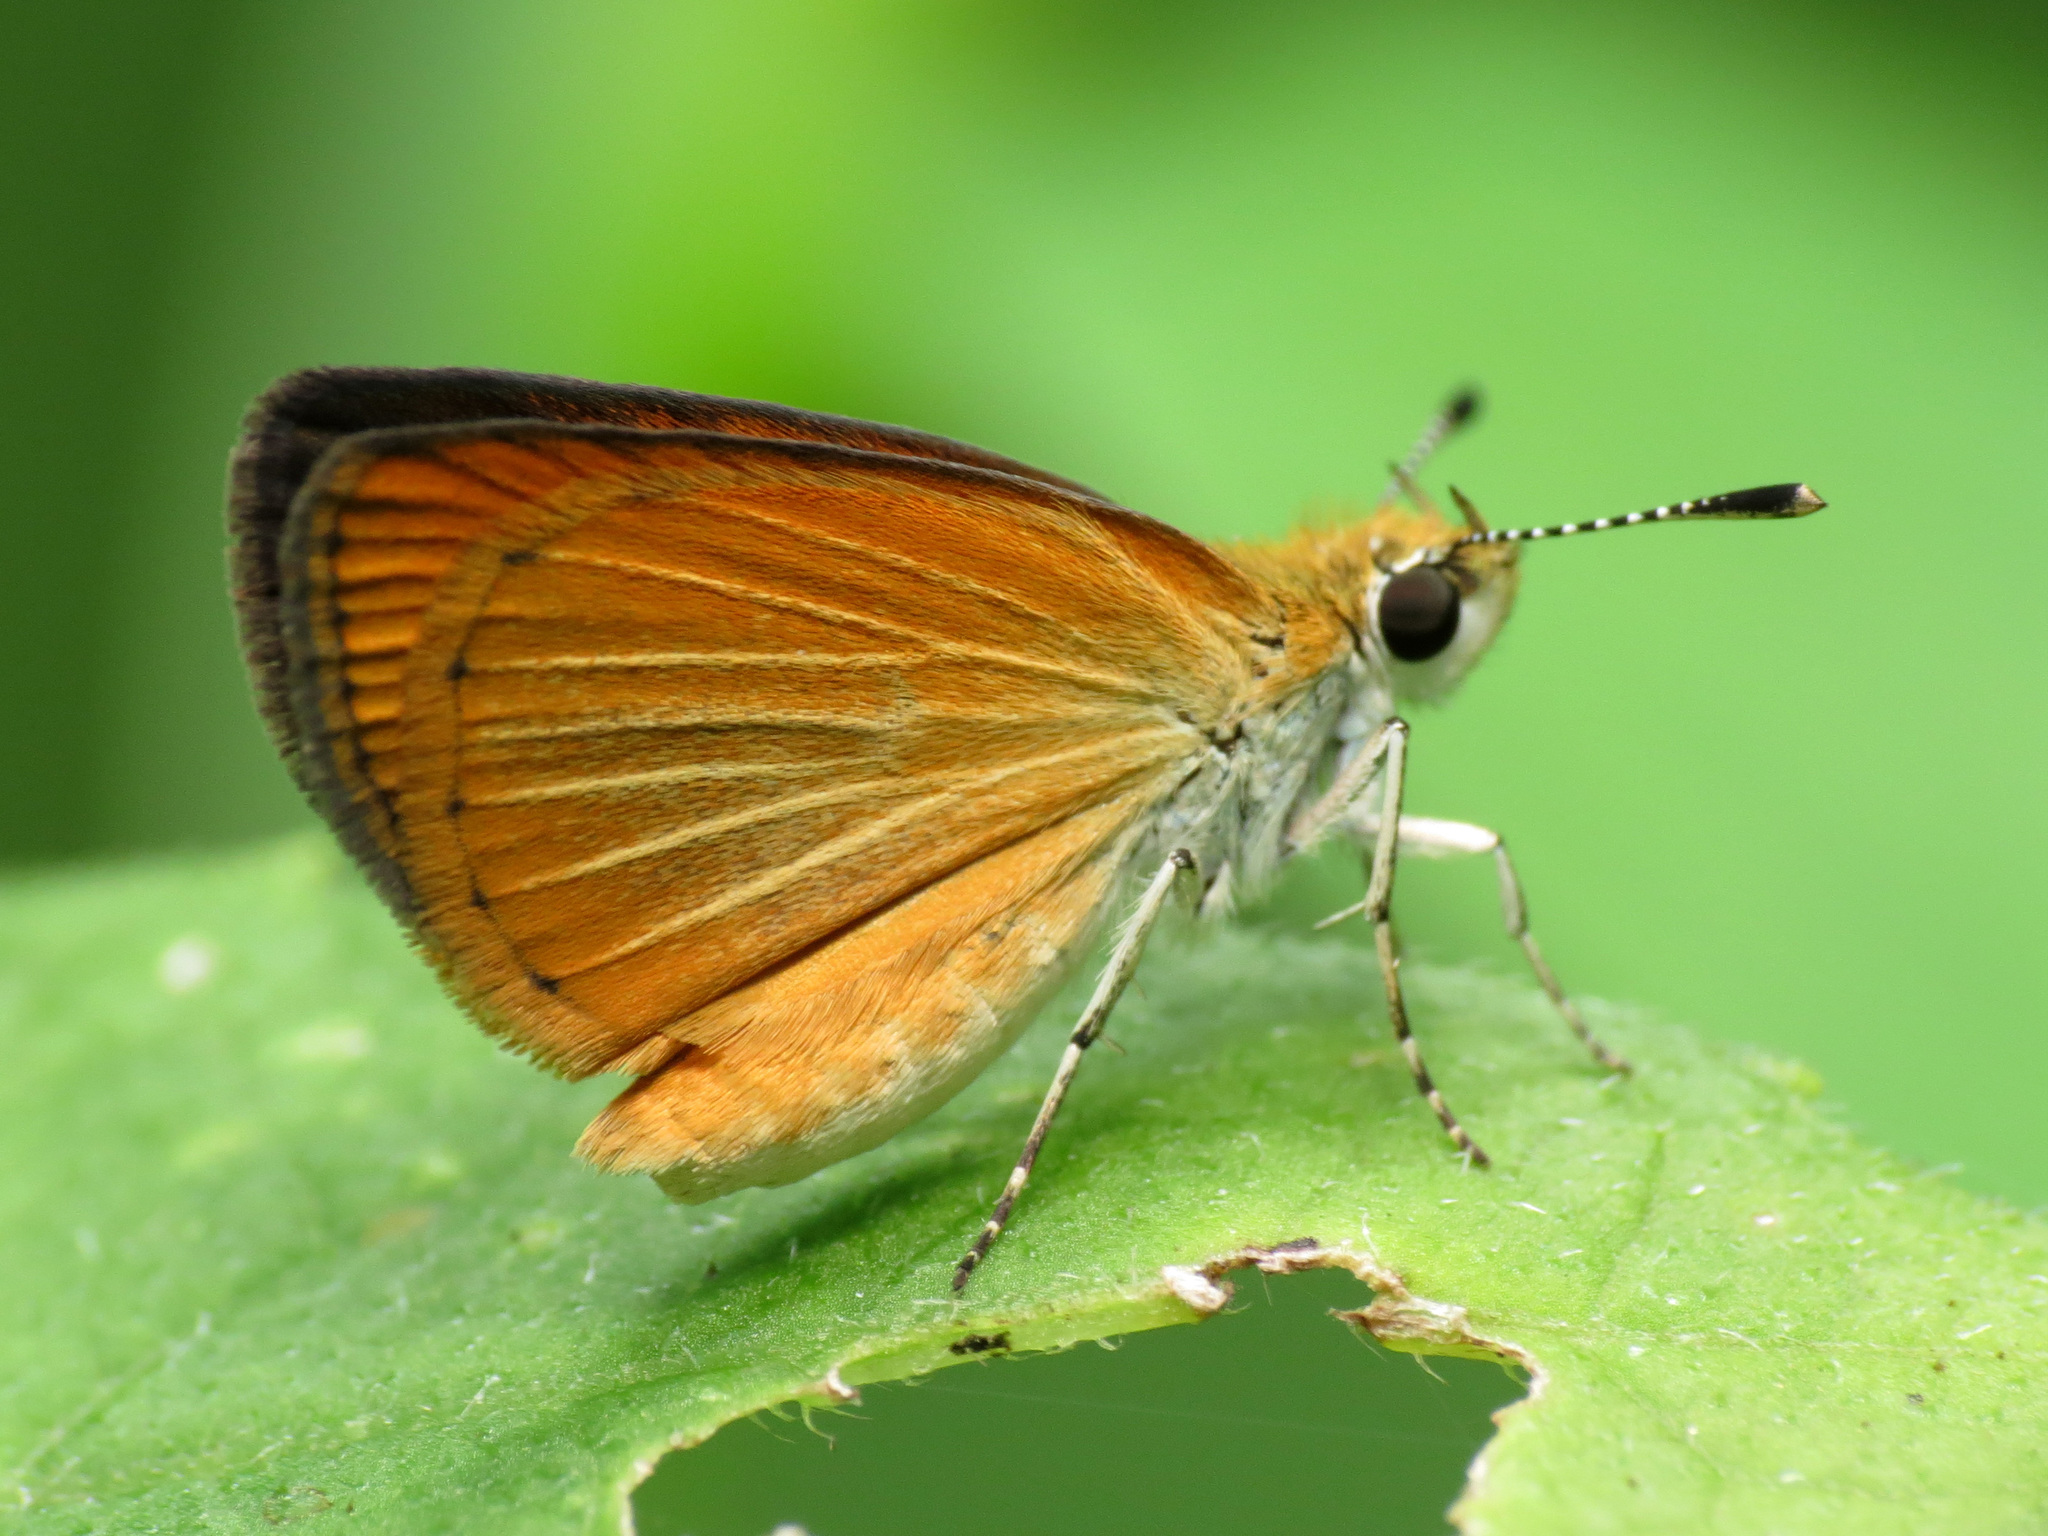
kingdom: Animalia
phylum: Arthropoda
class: Insecta
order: Lepidoptera
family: Hesperiidae
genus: Ancyloxypha
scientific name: Ancyloxypha numitor
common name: Least skipper
